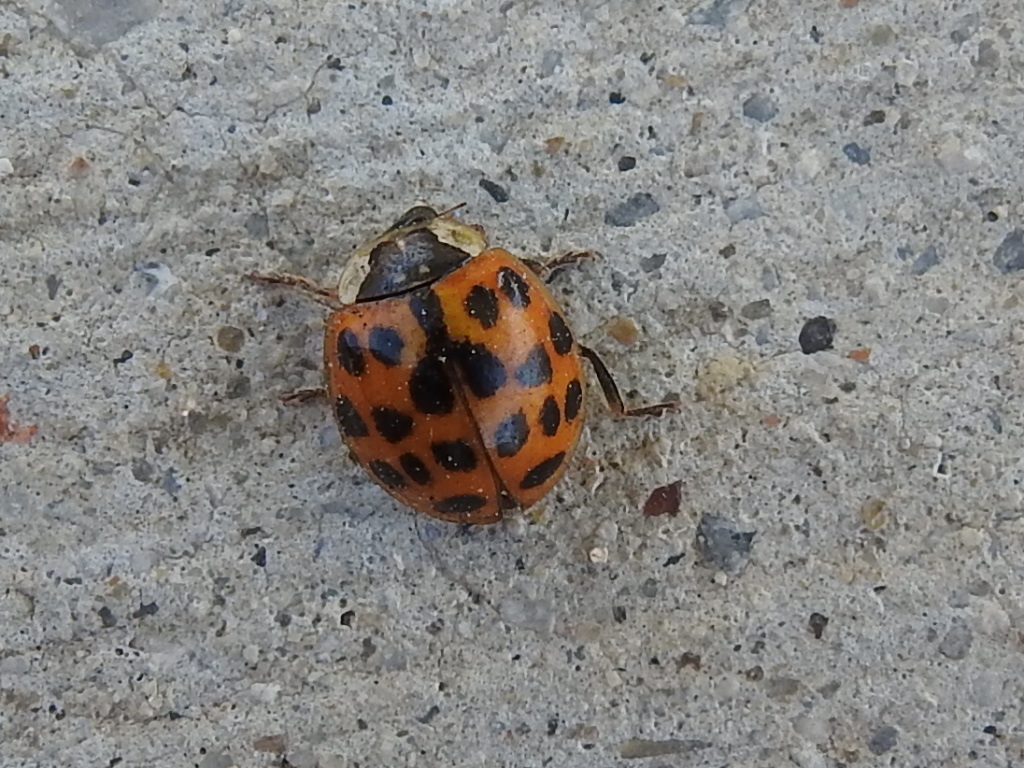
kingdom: Animalia
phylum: Arthropoda
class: Insecta
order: Coleoptera
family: Coccinellidae
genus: Harmonia
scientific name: Harmonia axyridis
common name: Harlequin ladybird
